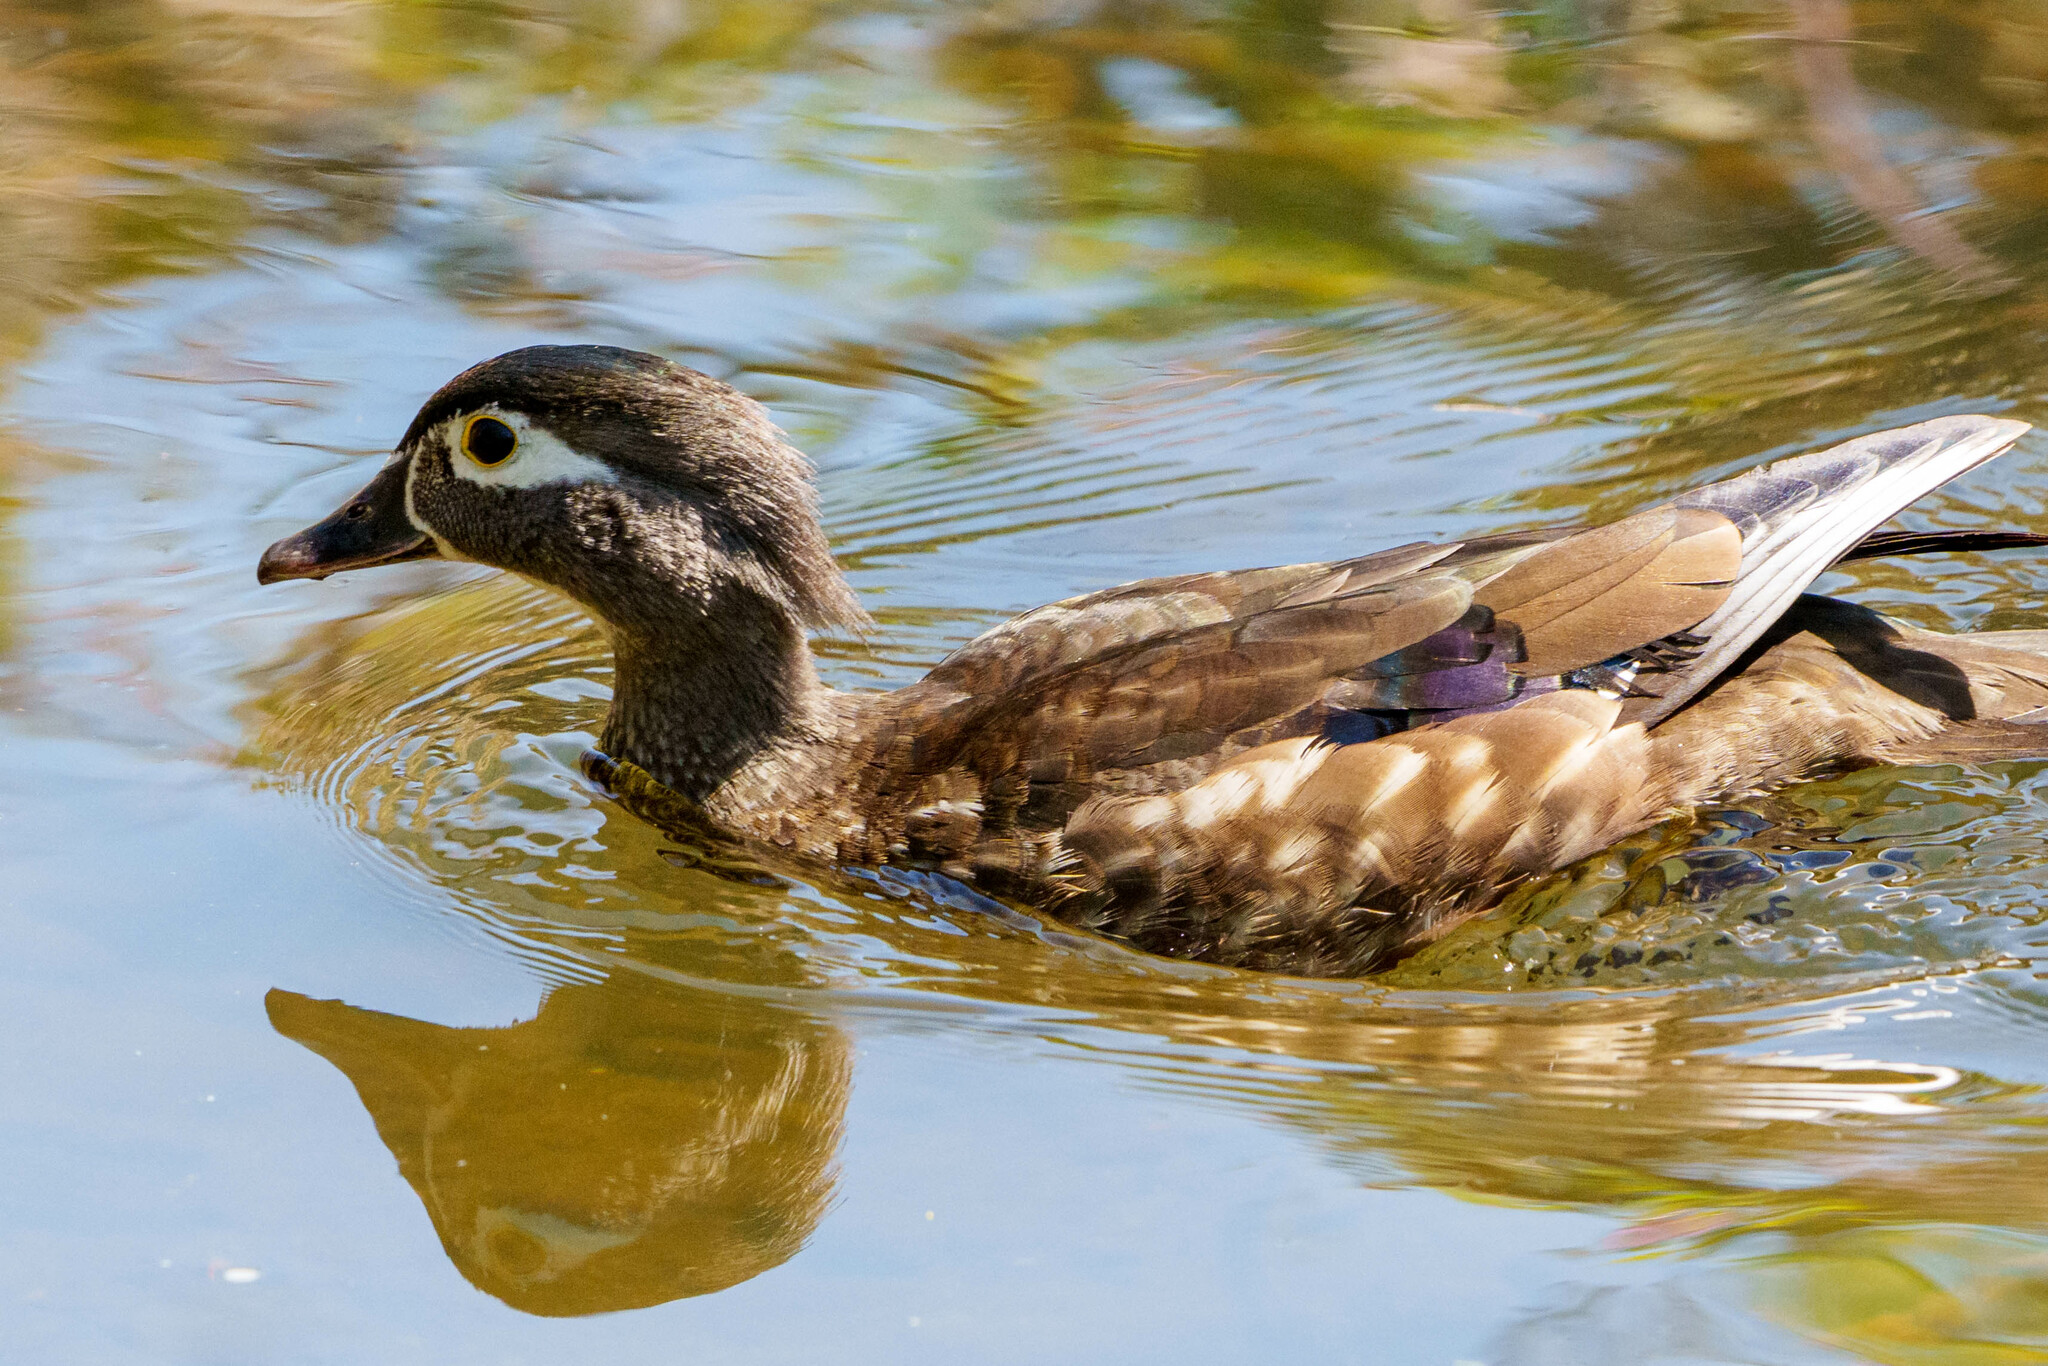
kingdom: Animalia
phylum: Chordata
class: Aves
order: Anseriformes
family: Anatidae
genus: Aix
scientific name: Aix sponsa
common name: Wood duck
